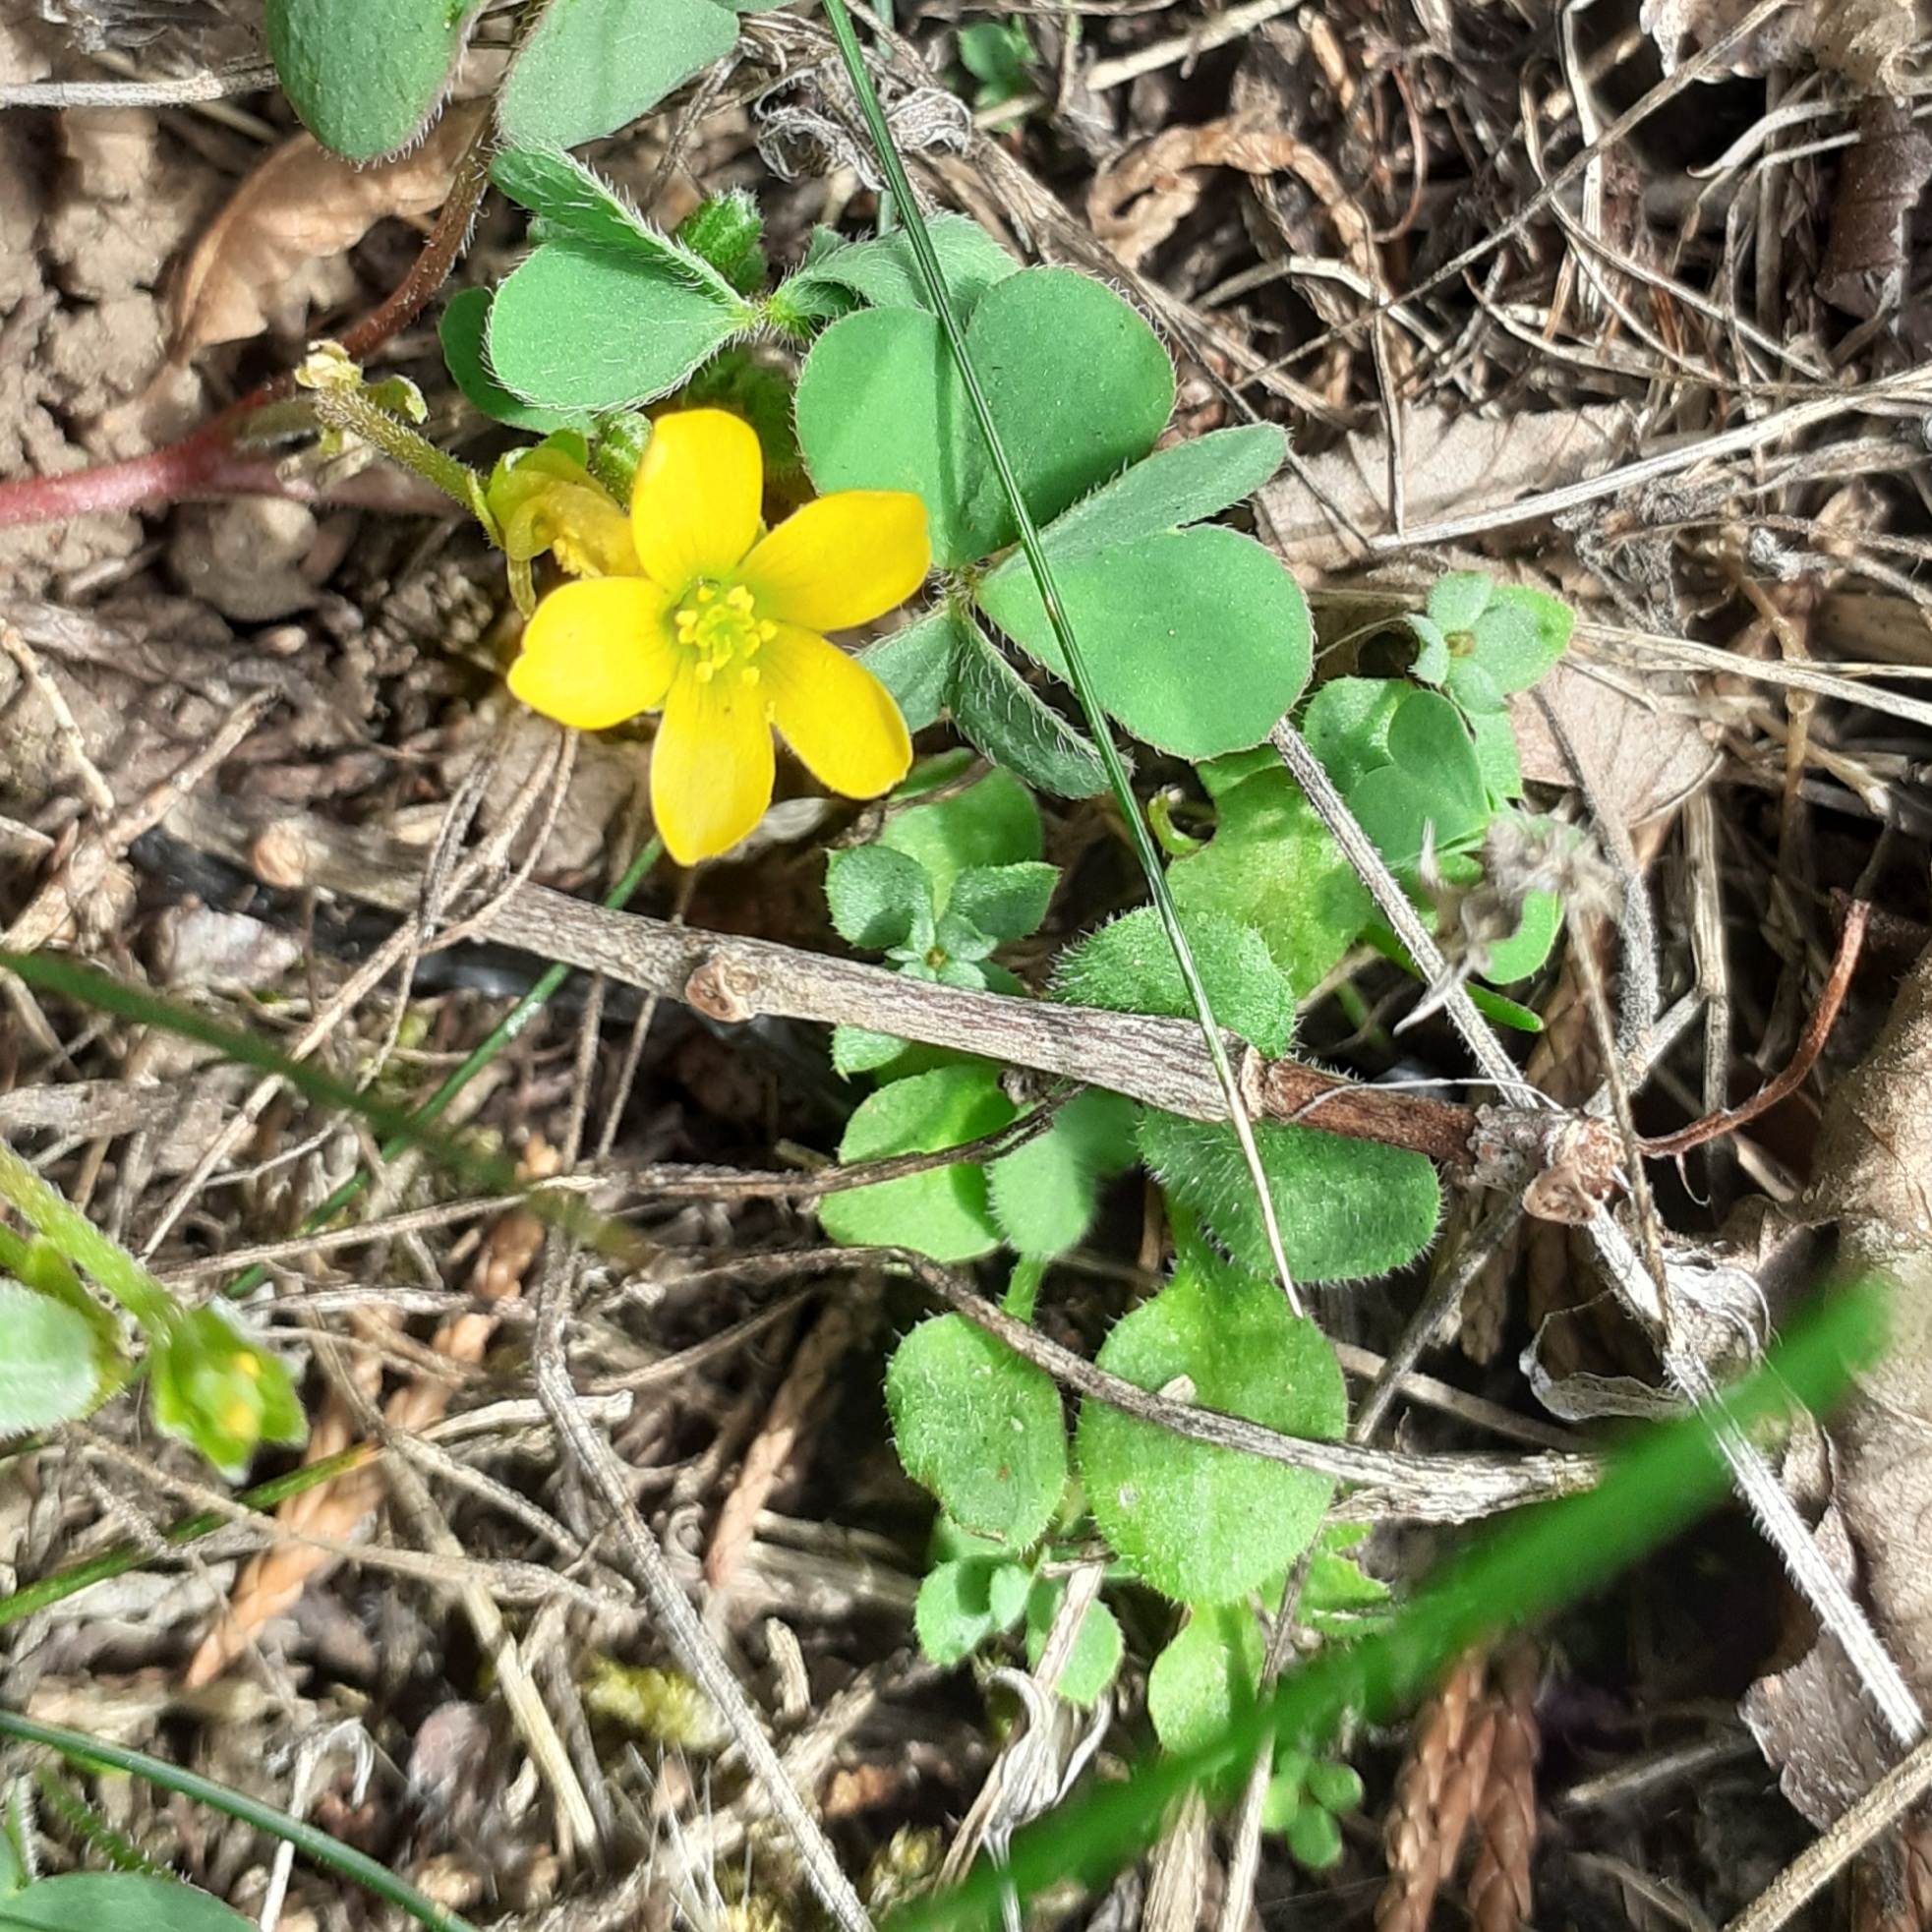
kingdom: Plantae
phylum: Tracheophyta
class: Magnoliopsida
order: Oxalidales
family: Oxalidaceae
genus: Oxalis
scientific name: Oxalis corniculata
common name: Procumbent yellow-sorrel
